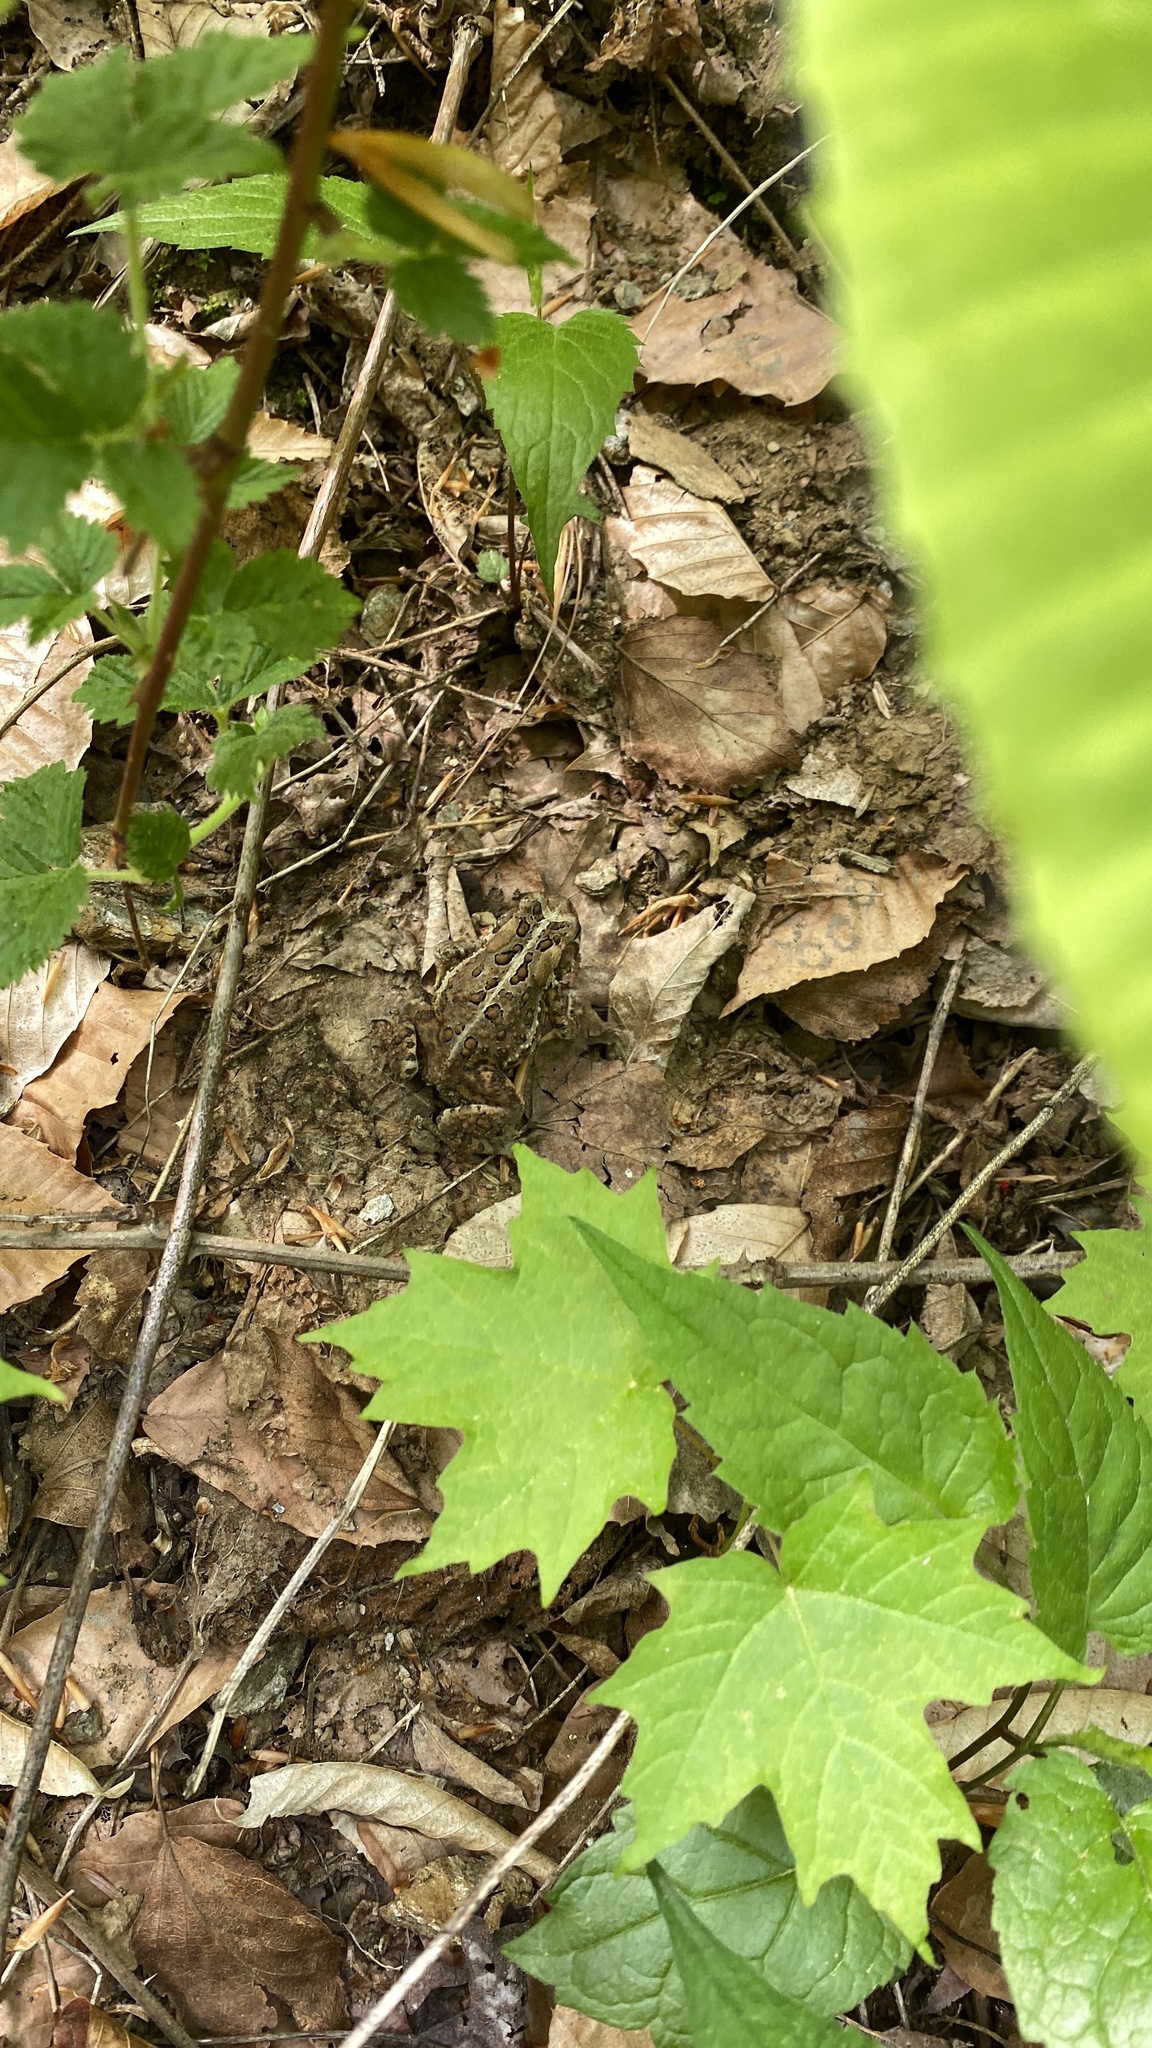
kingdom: Animalia
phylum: Chordata
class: Amphibia
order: Anura
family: Bufonidae
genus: Anaxyrus
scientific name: Anaxyrus americanus
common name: American toad
